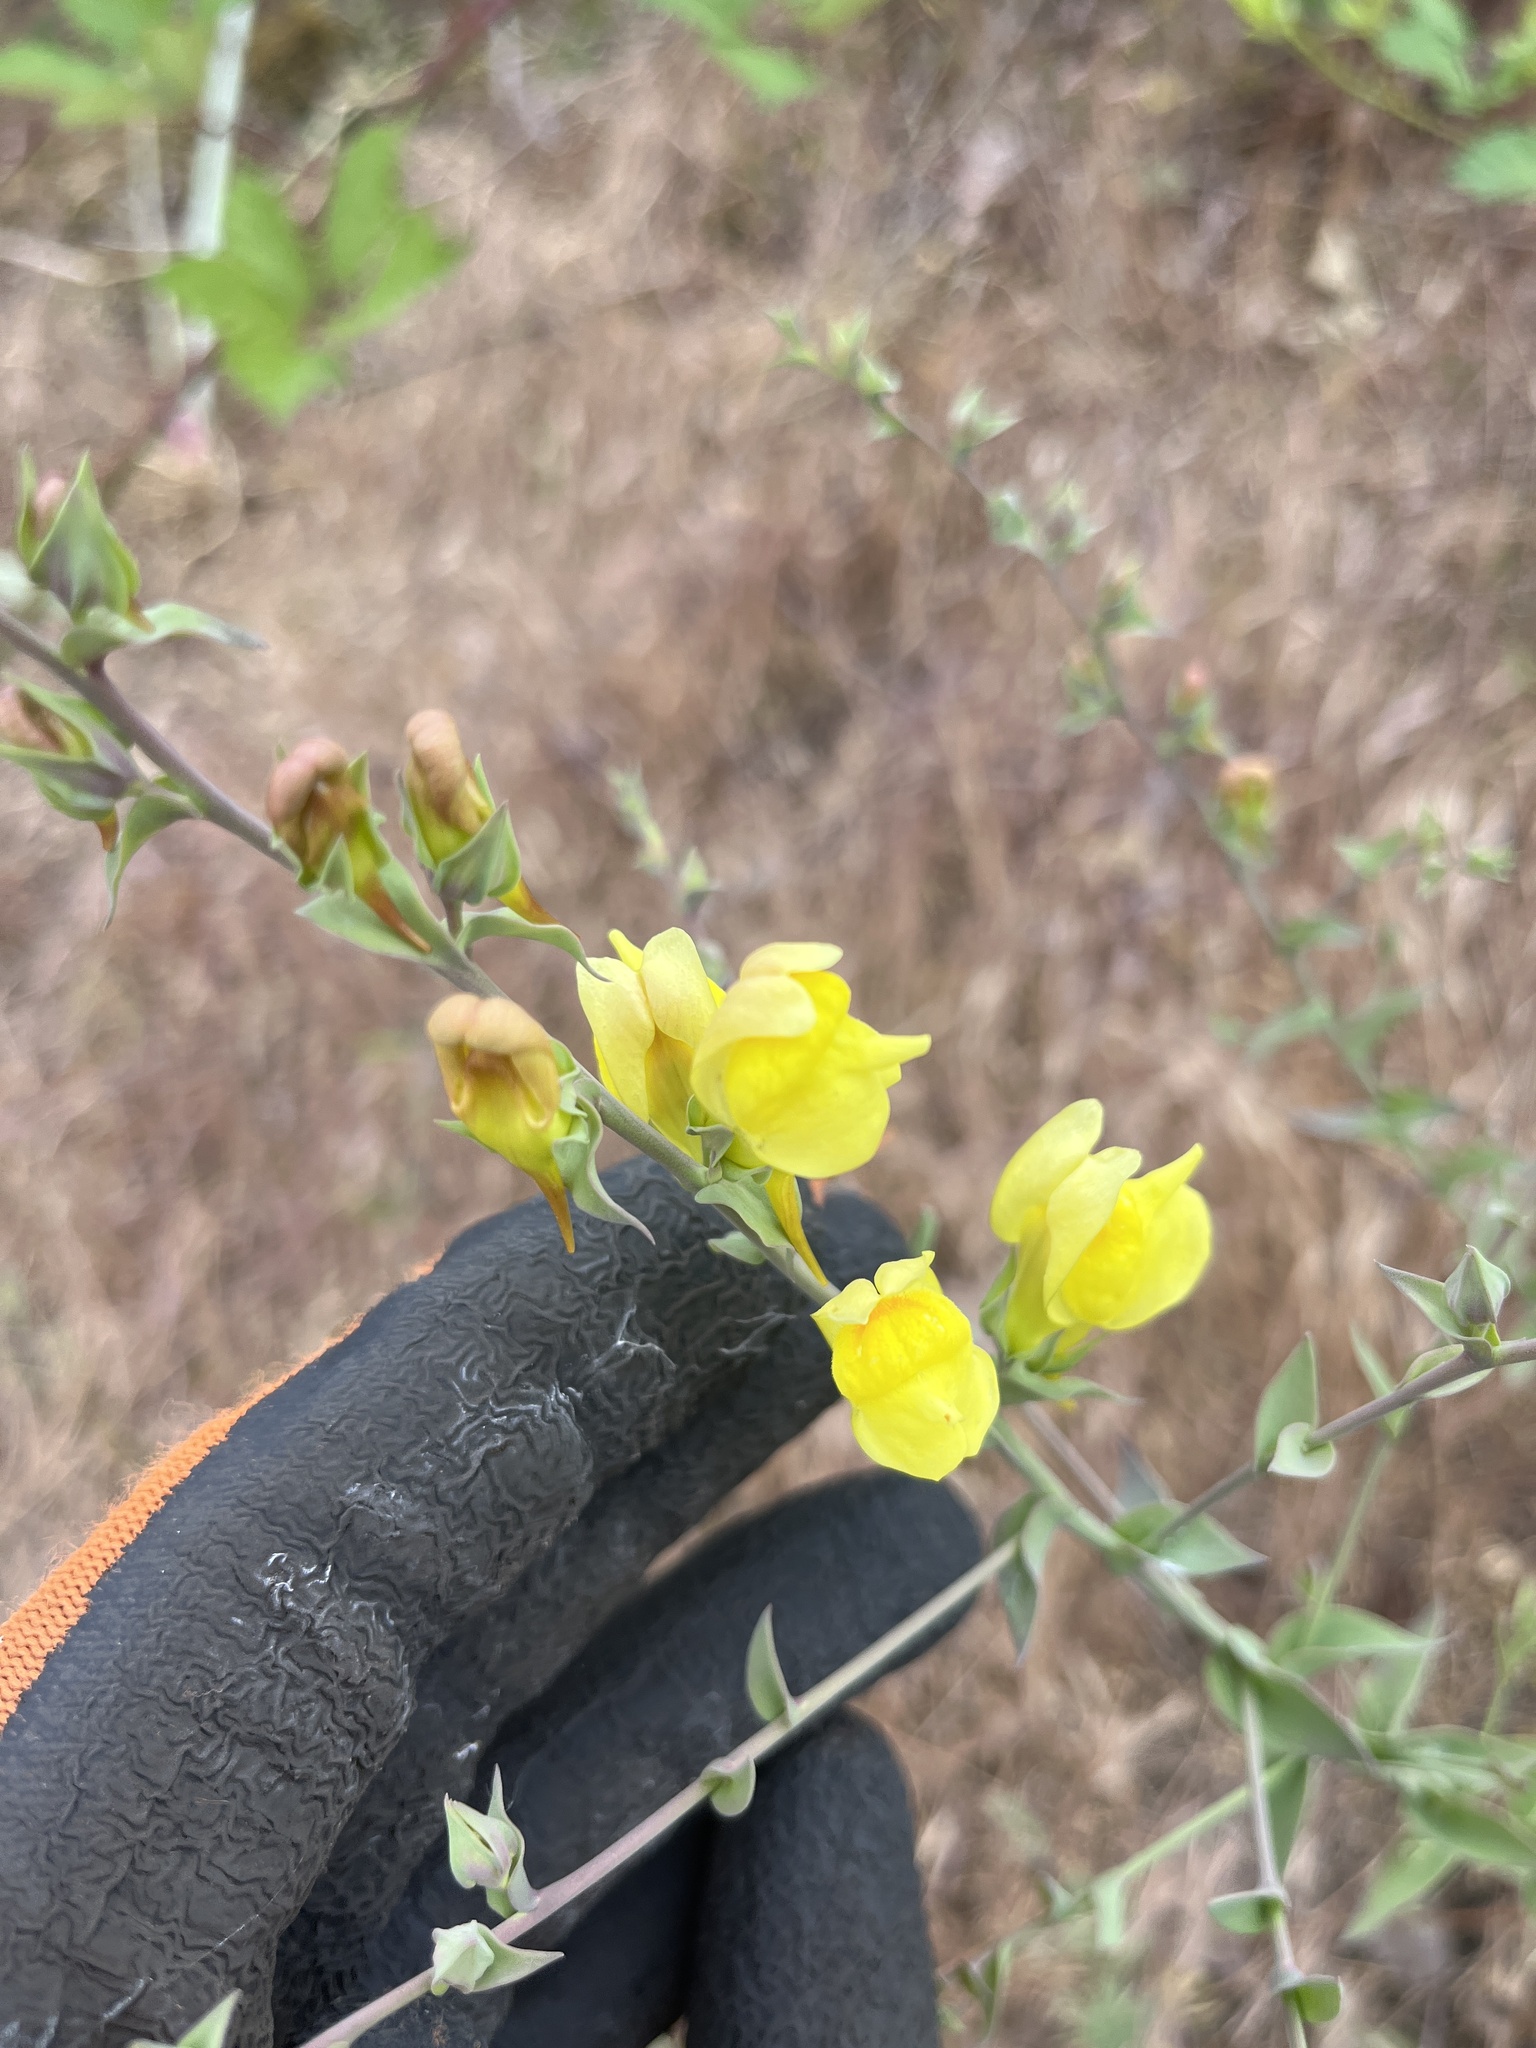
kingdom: Plantae
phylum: Tracheophyta
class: Magnoliopsida
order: Lamiales
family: Plantaginaceae
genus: Linaria
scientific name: Linaria dalmatica
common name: Dalmatian toadflax
